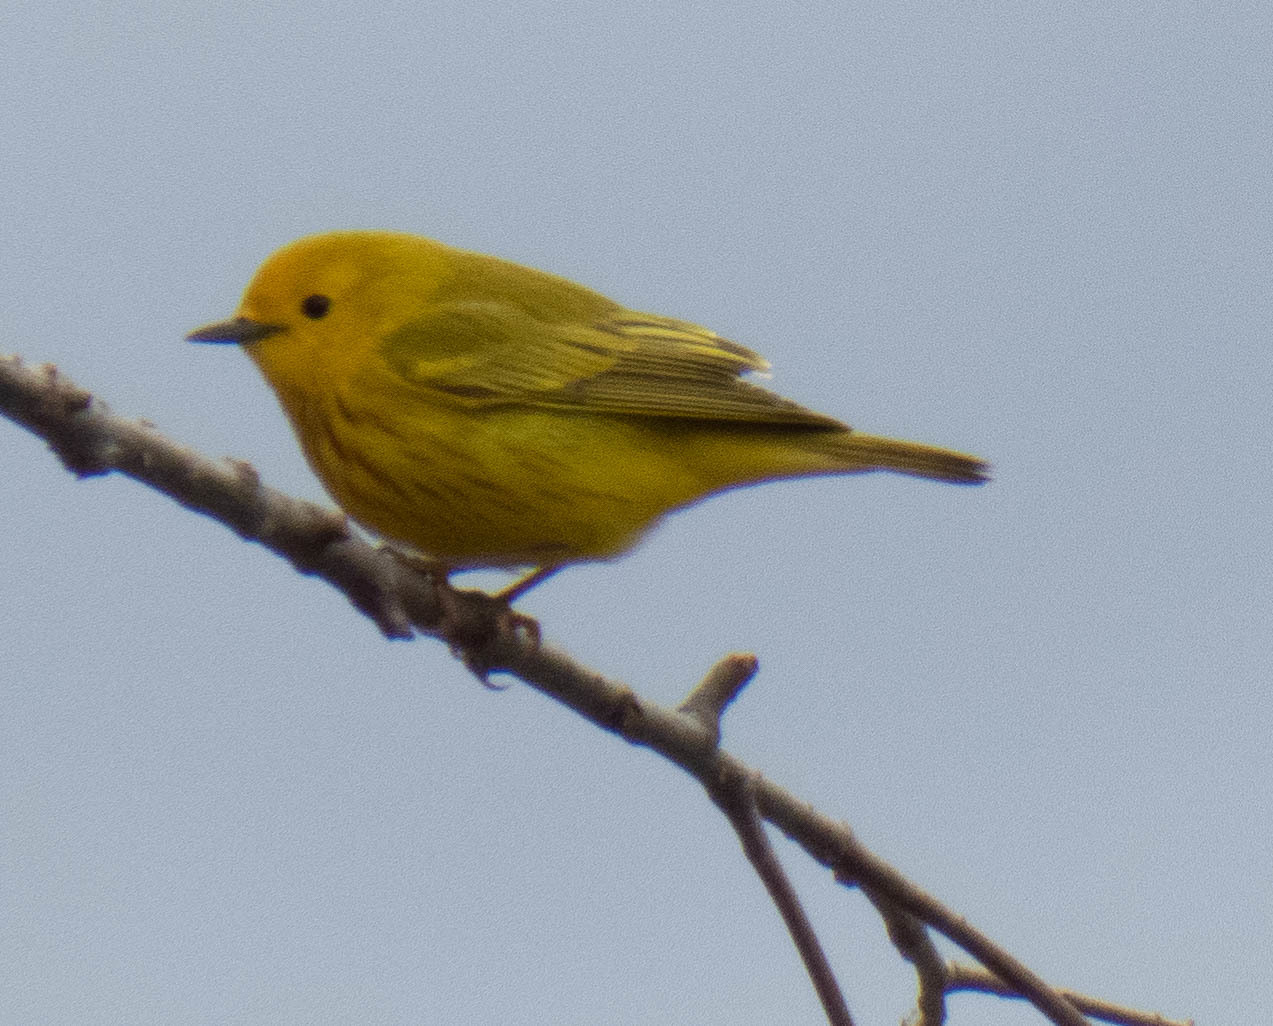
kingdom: Animalia
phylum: Chordata
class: Aves
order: Passeriformes
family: Parulidae
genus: Setophaga
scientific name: Setophaga petechia
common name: Yellow warbler
